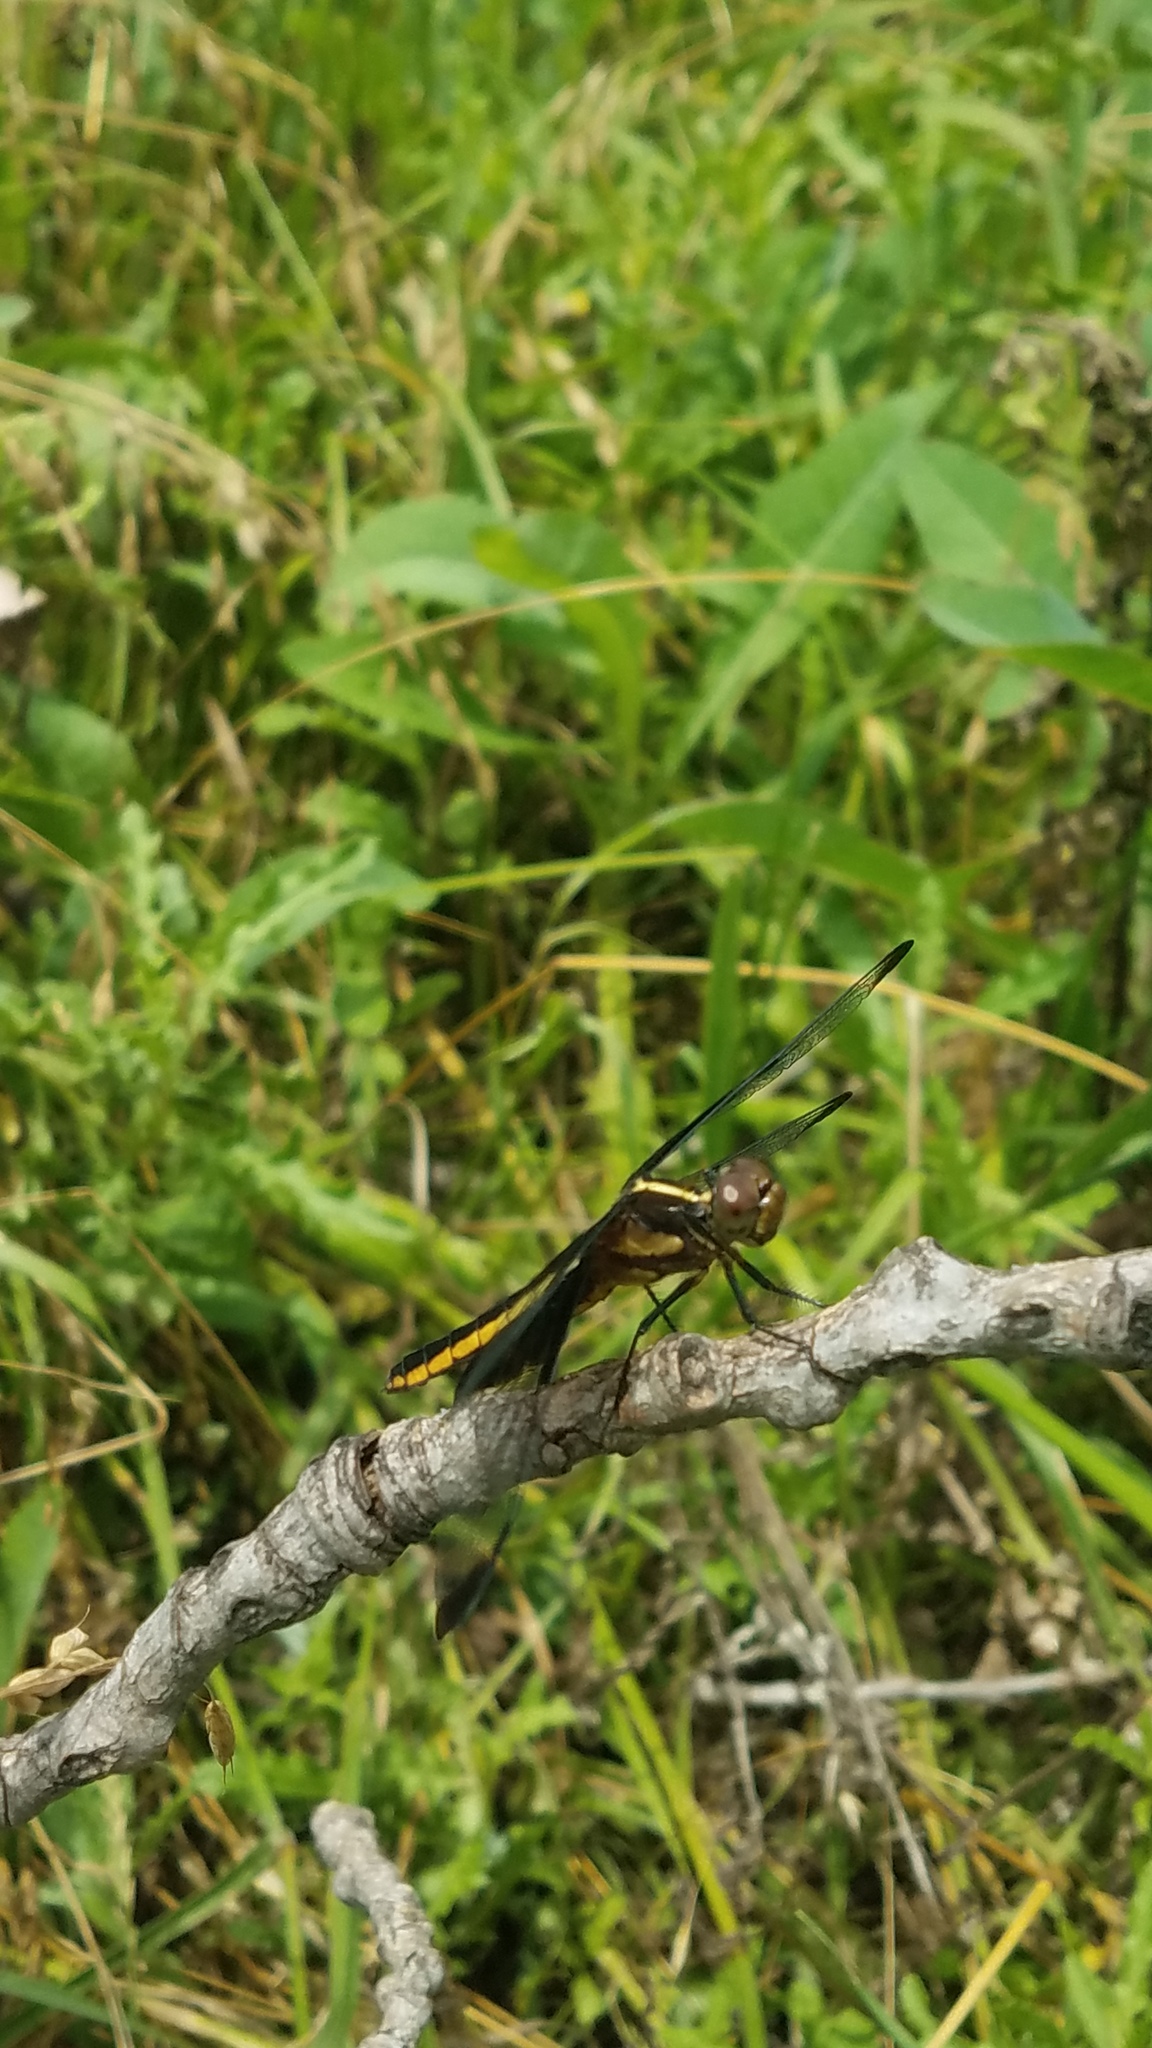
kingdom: Animalia
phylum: Arthropoda
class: Insecta
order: Odonata
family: Libellulidae
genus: Libellula
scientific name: Libellula luctuosa
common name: Widow skimmer
